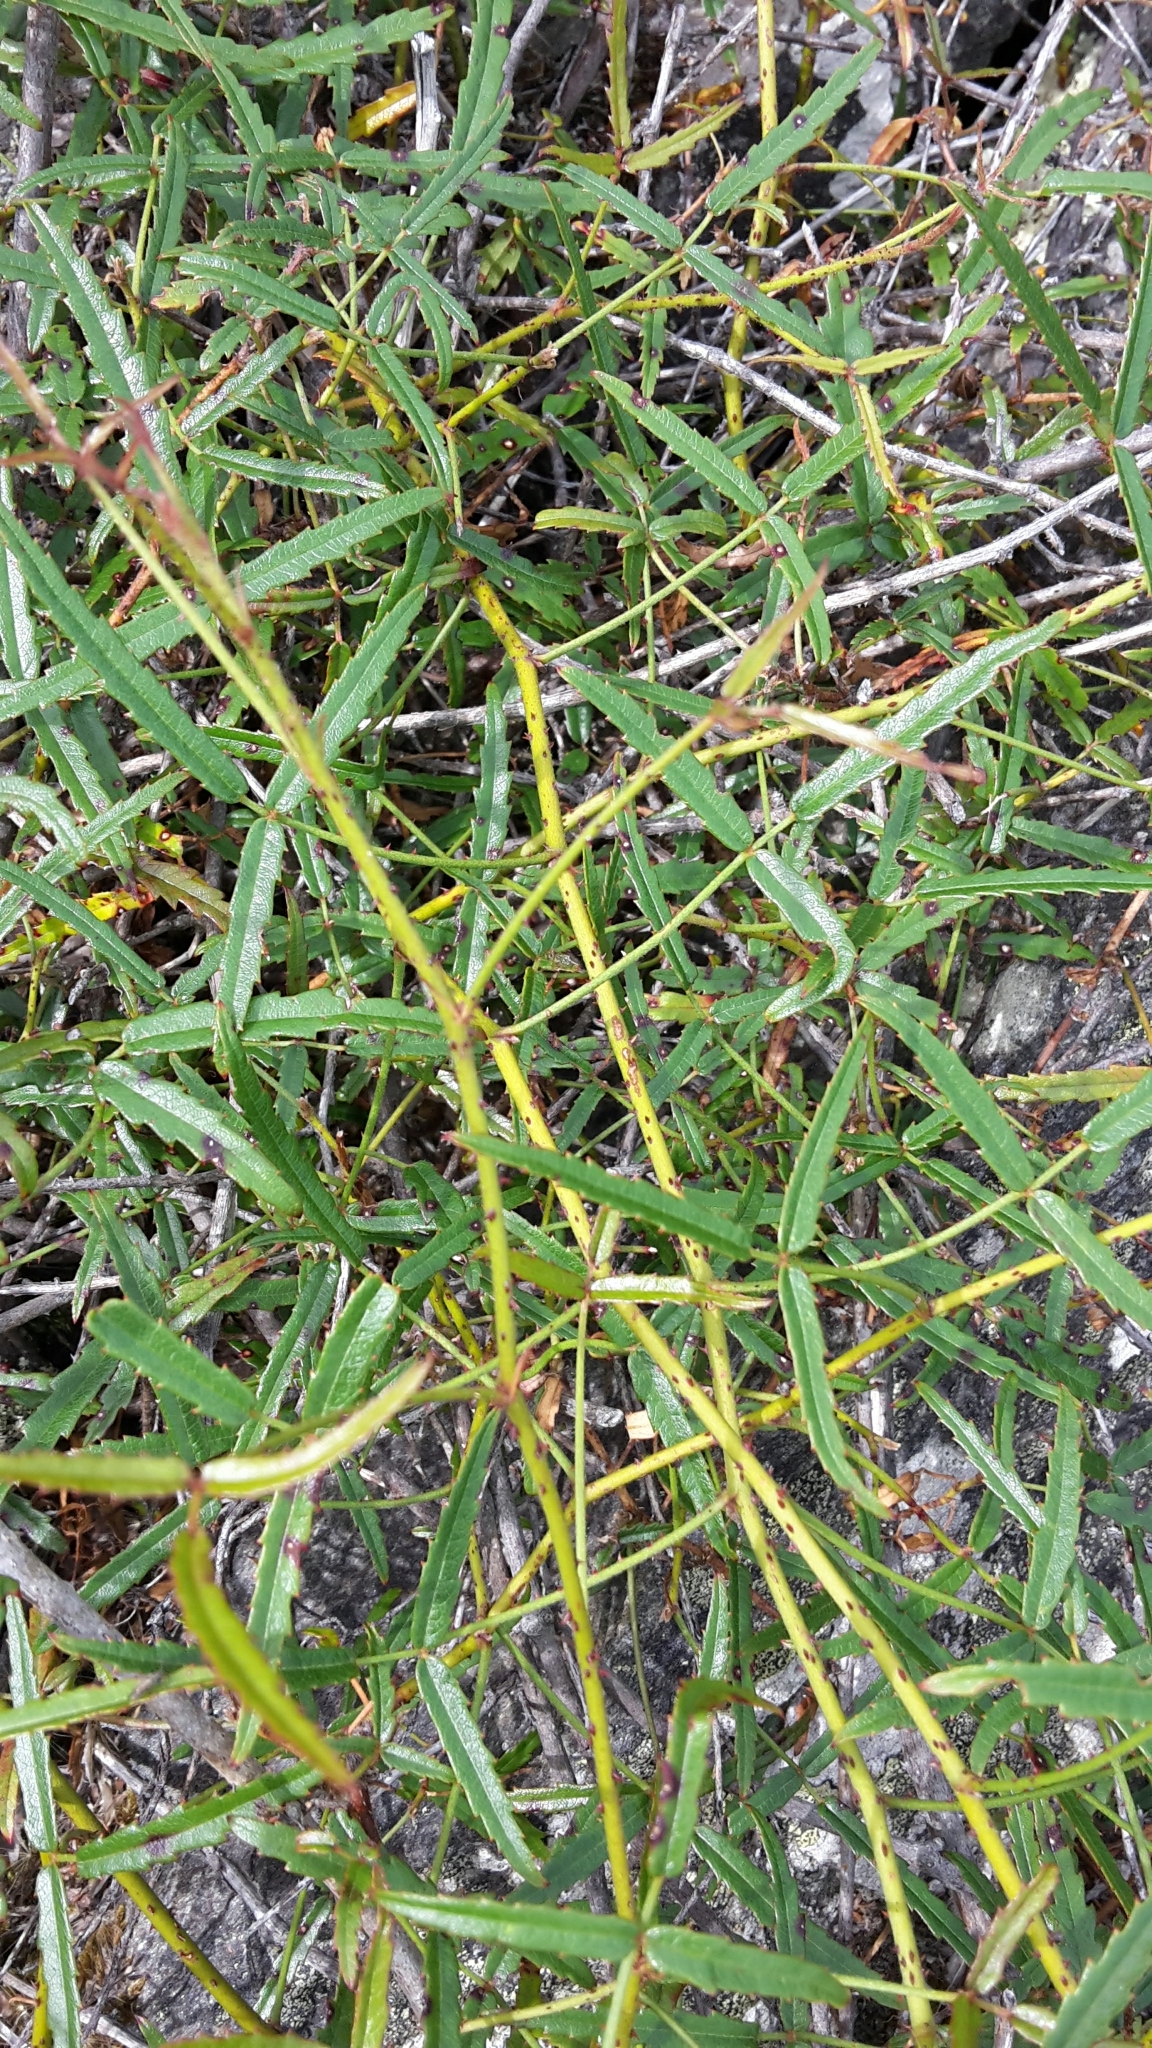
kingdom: Plantae
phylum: Tracheophyta
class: Magnoliopsida
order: Rosales
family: Rosaceae
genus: Rubus
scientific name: Rubus schmidelioides
